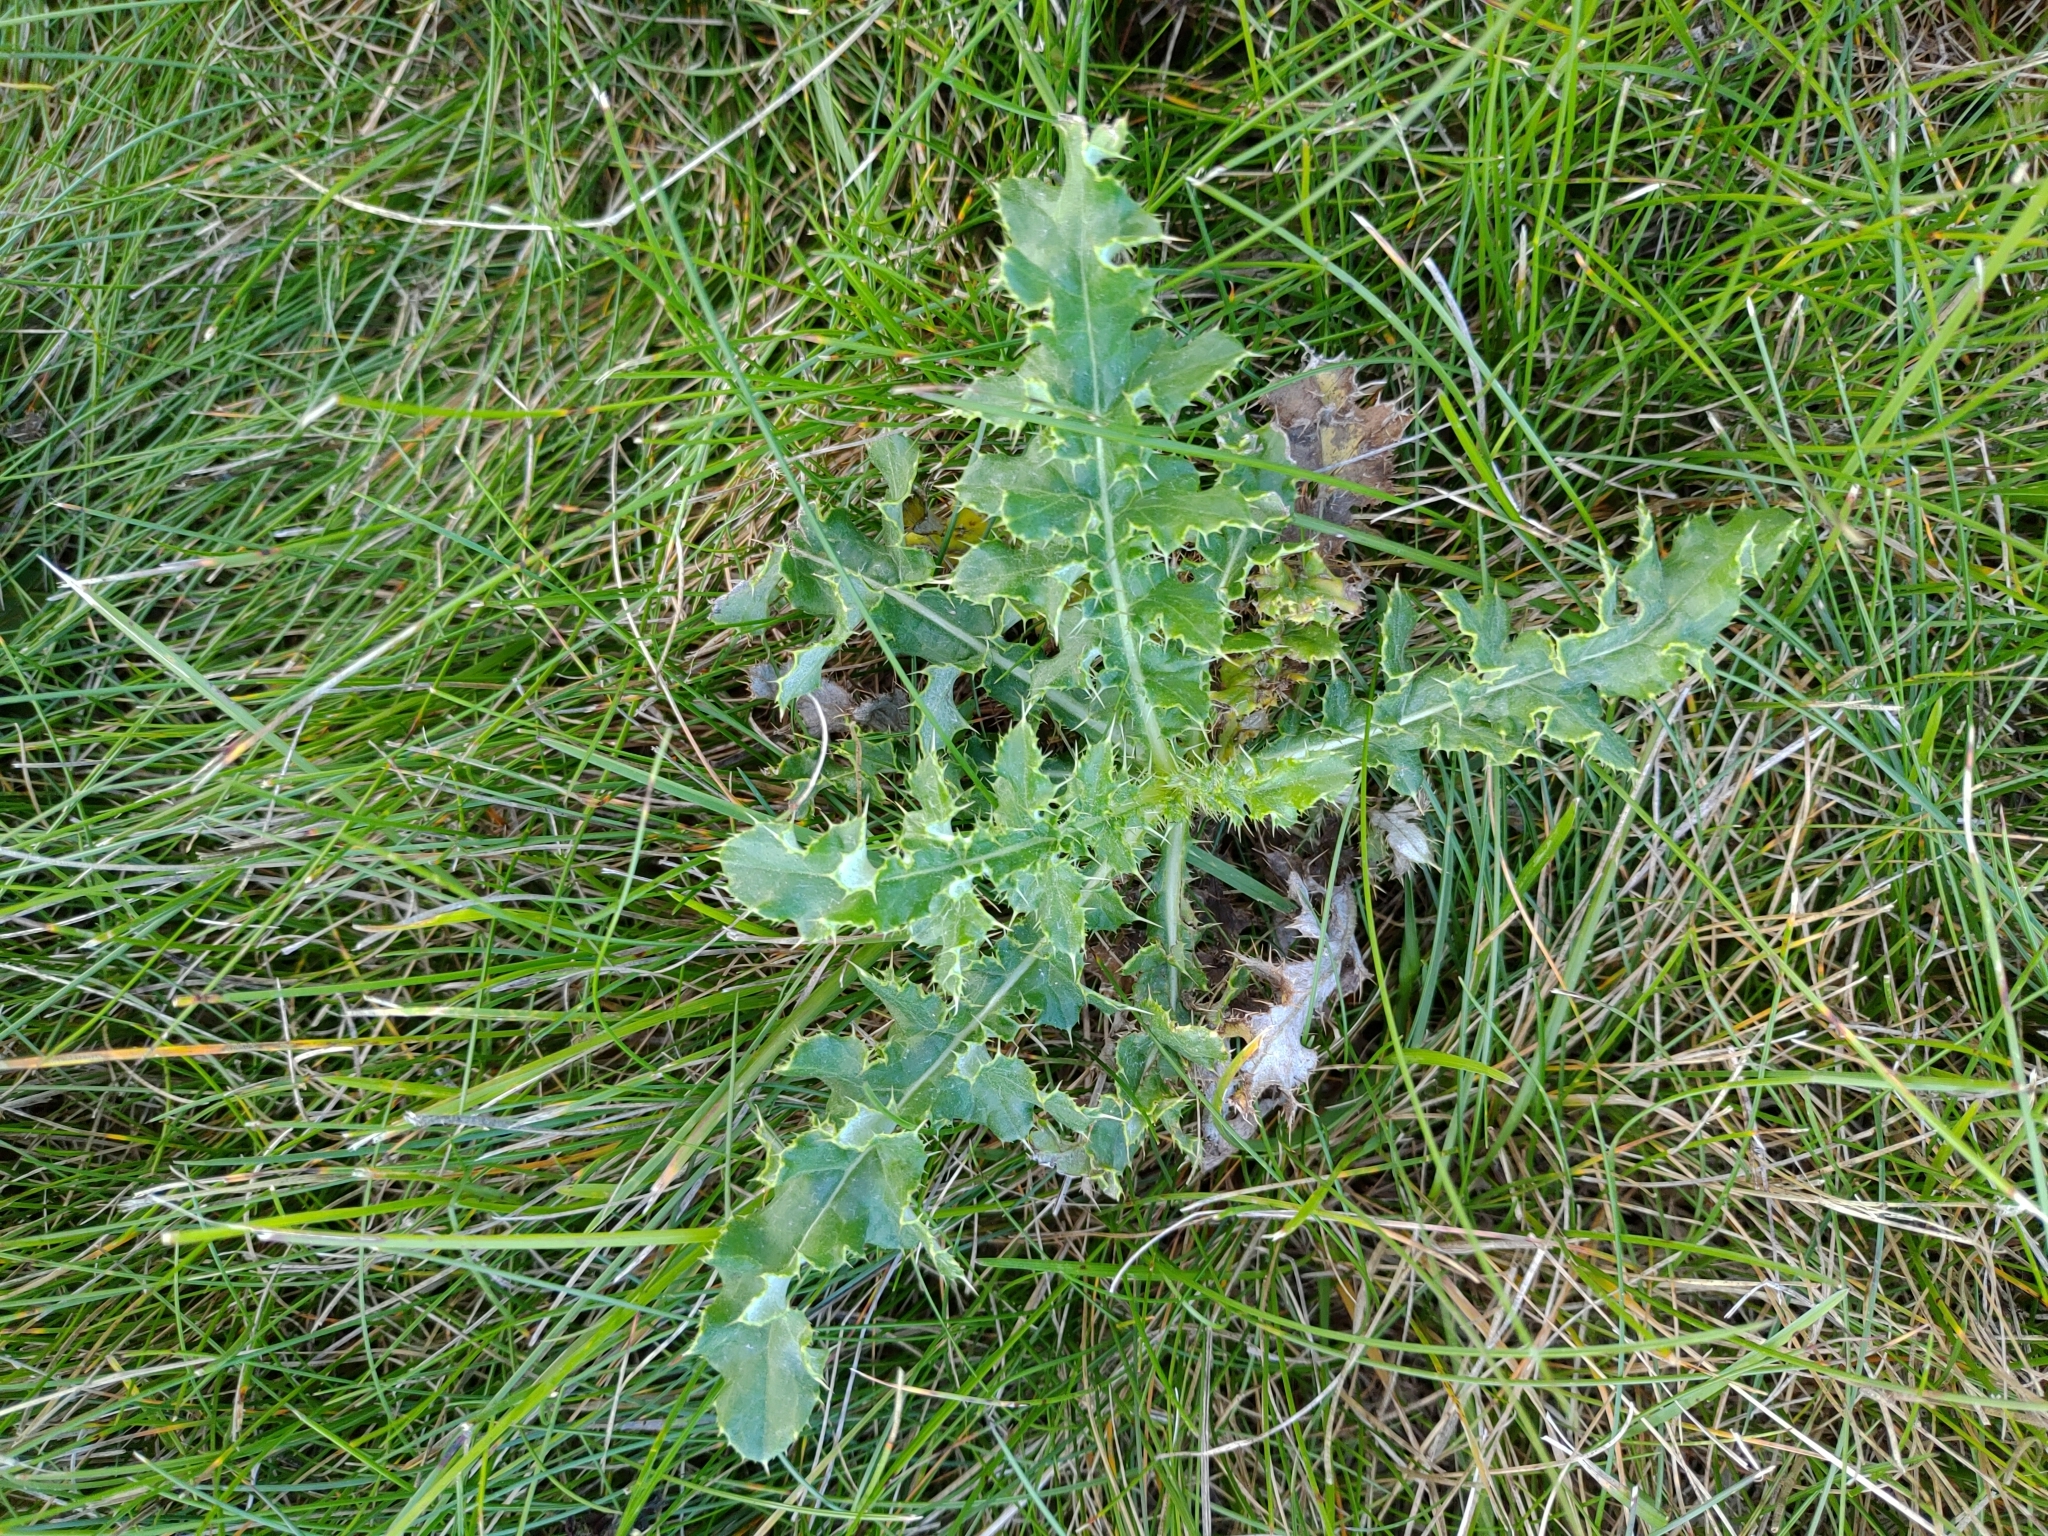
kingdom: Plantae
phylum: Tracheophyta
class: Magnoliopsida
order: Asterales
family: Asteraceae
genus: Cirsium
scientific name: Cirsium arvense
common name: Creeping thistle
